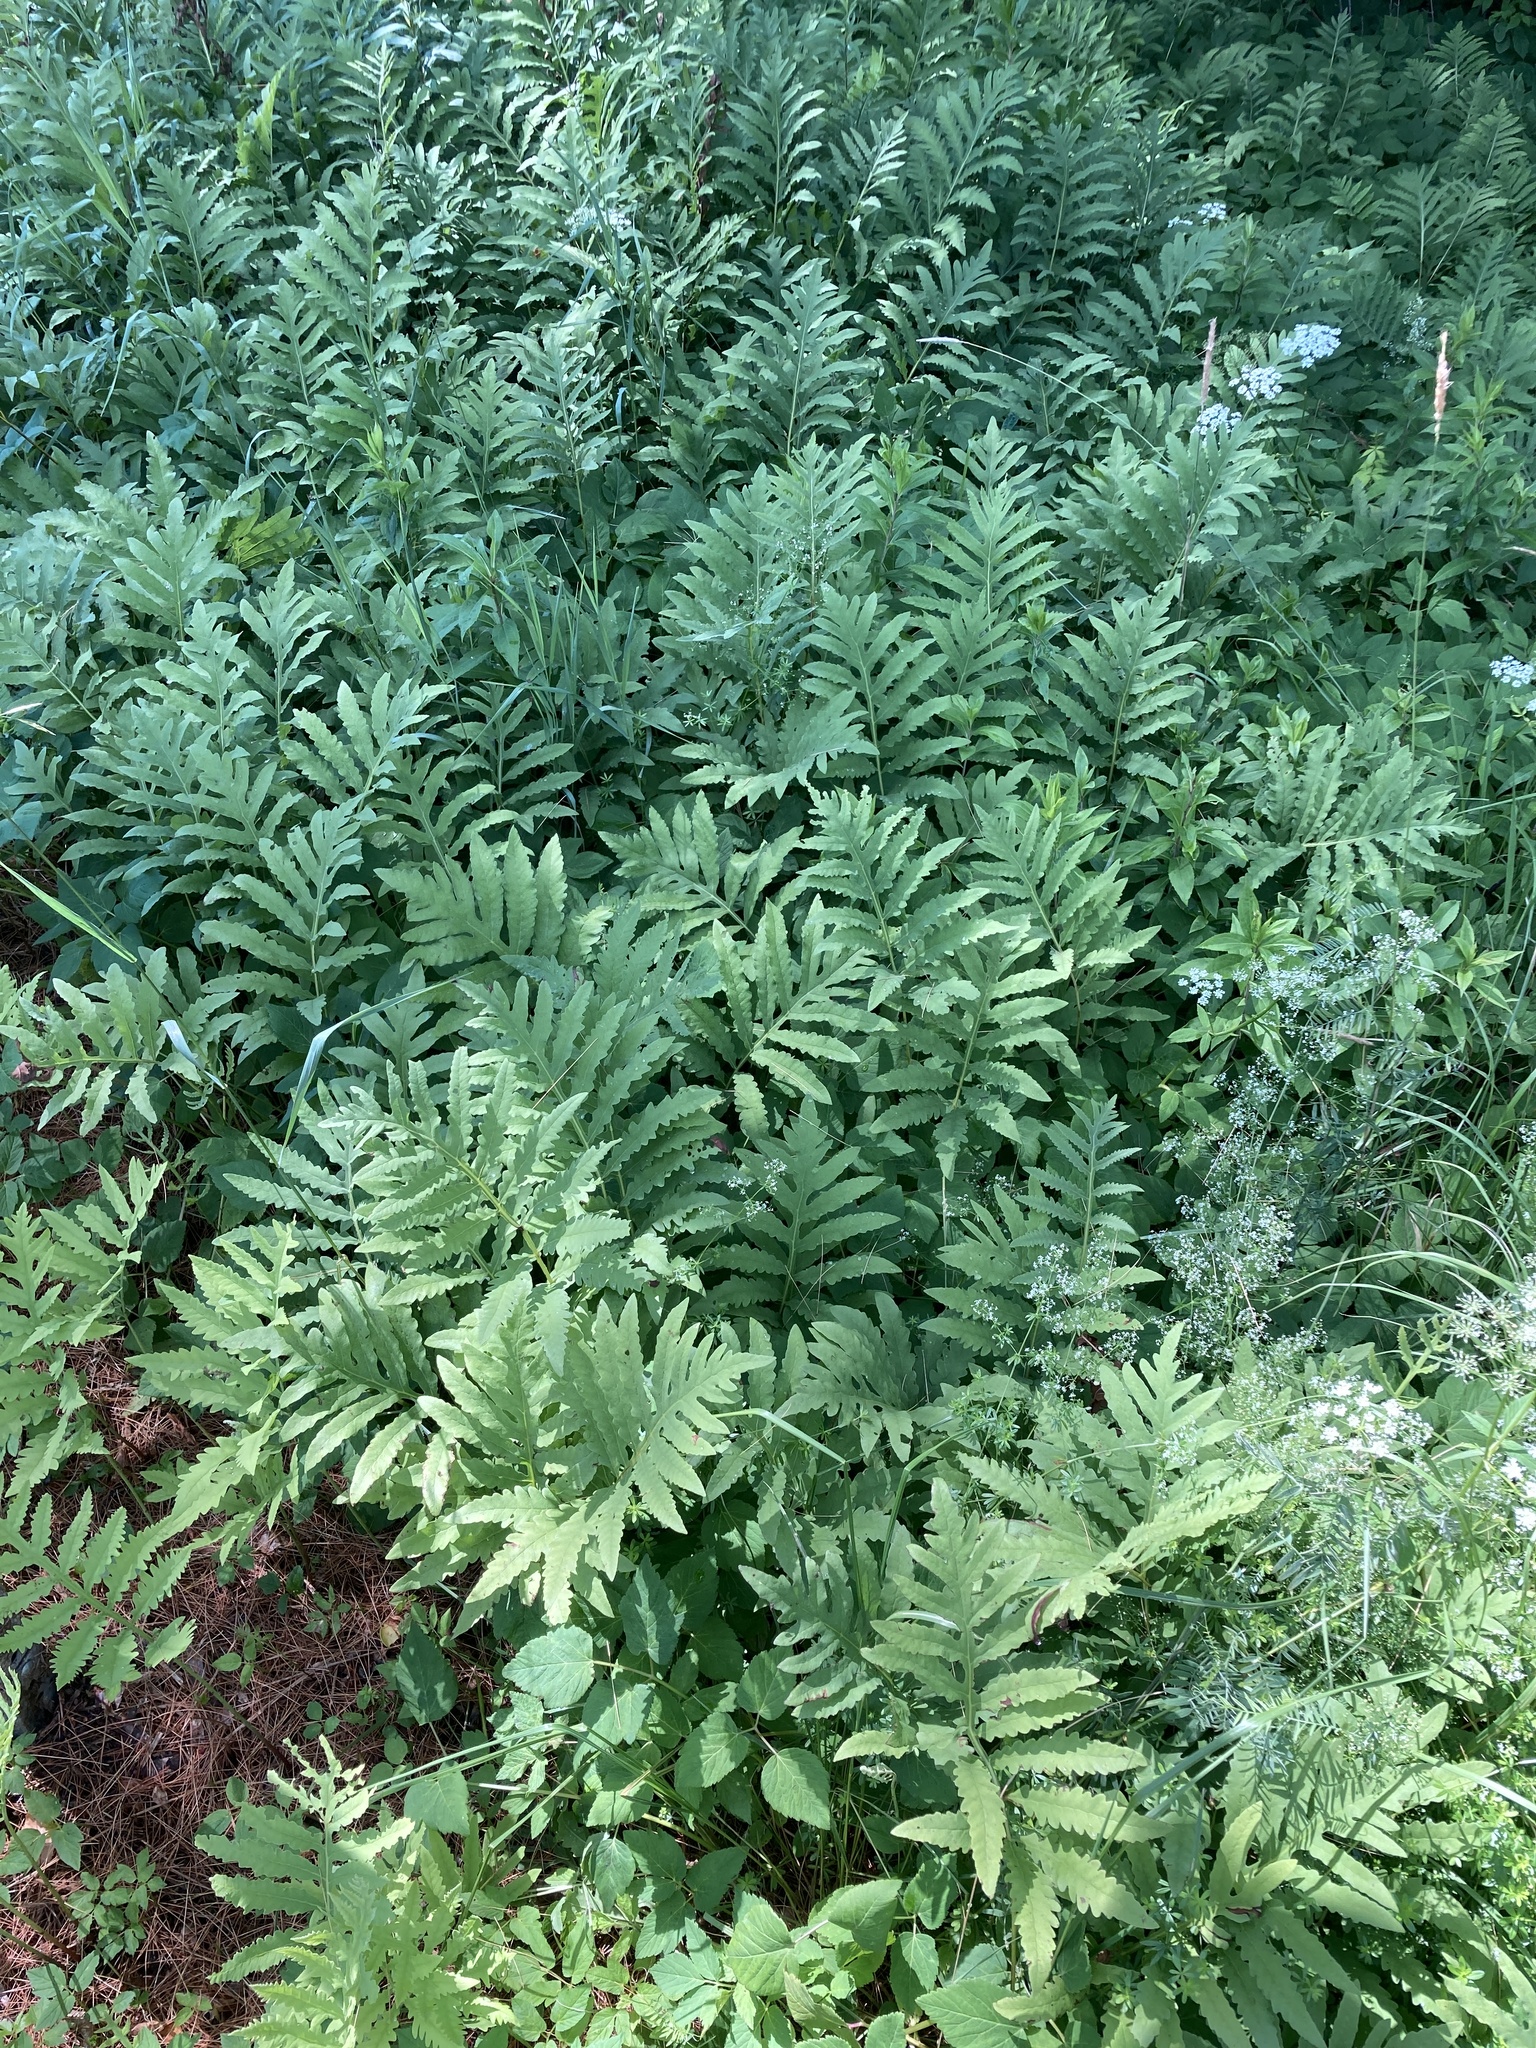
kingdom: Plantae
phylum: Tracheophyta
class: Polypodiopsida
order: Polypodiales
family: Onocleaceae
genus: Onoclea
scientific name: Onoclea sensibilis
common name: Sensitive fern
